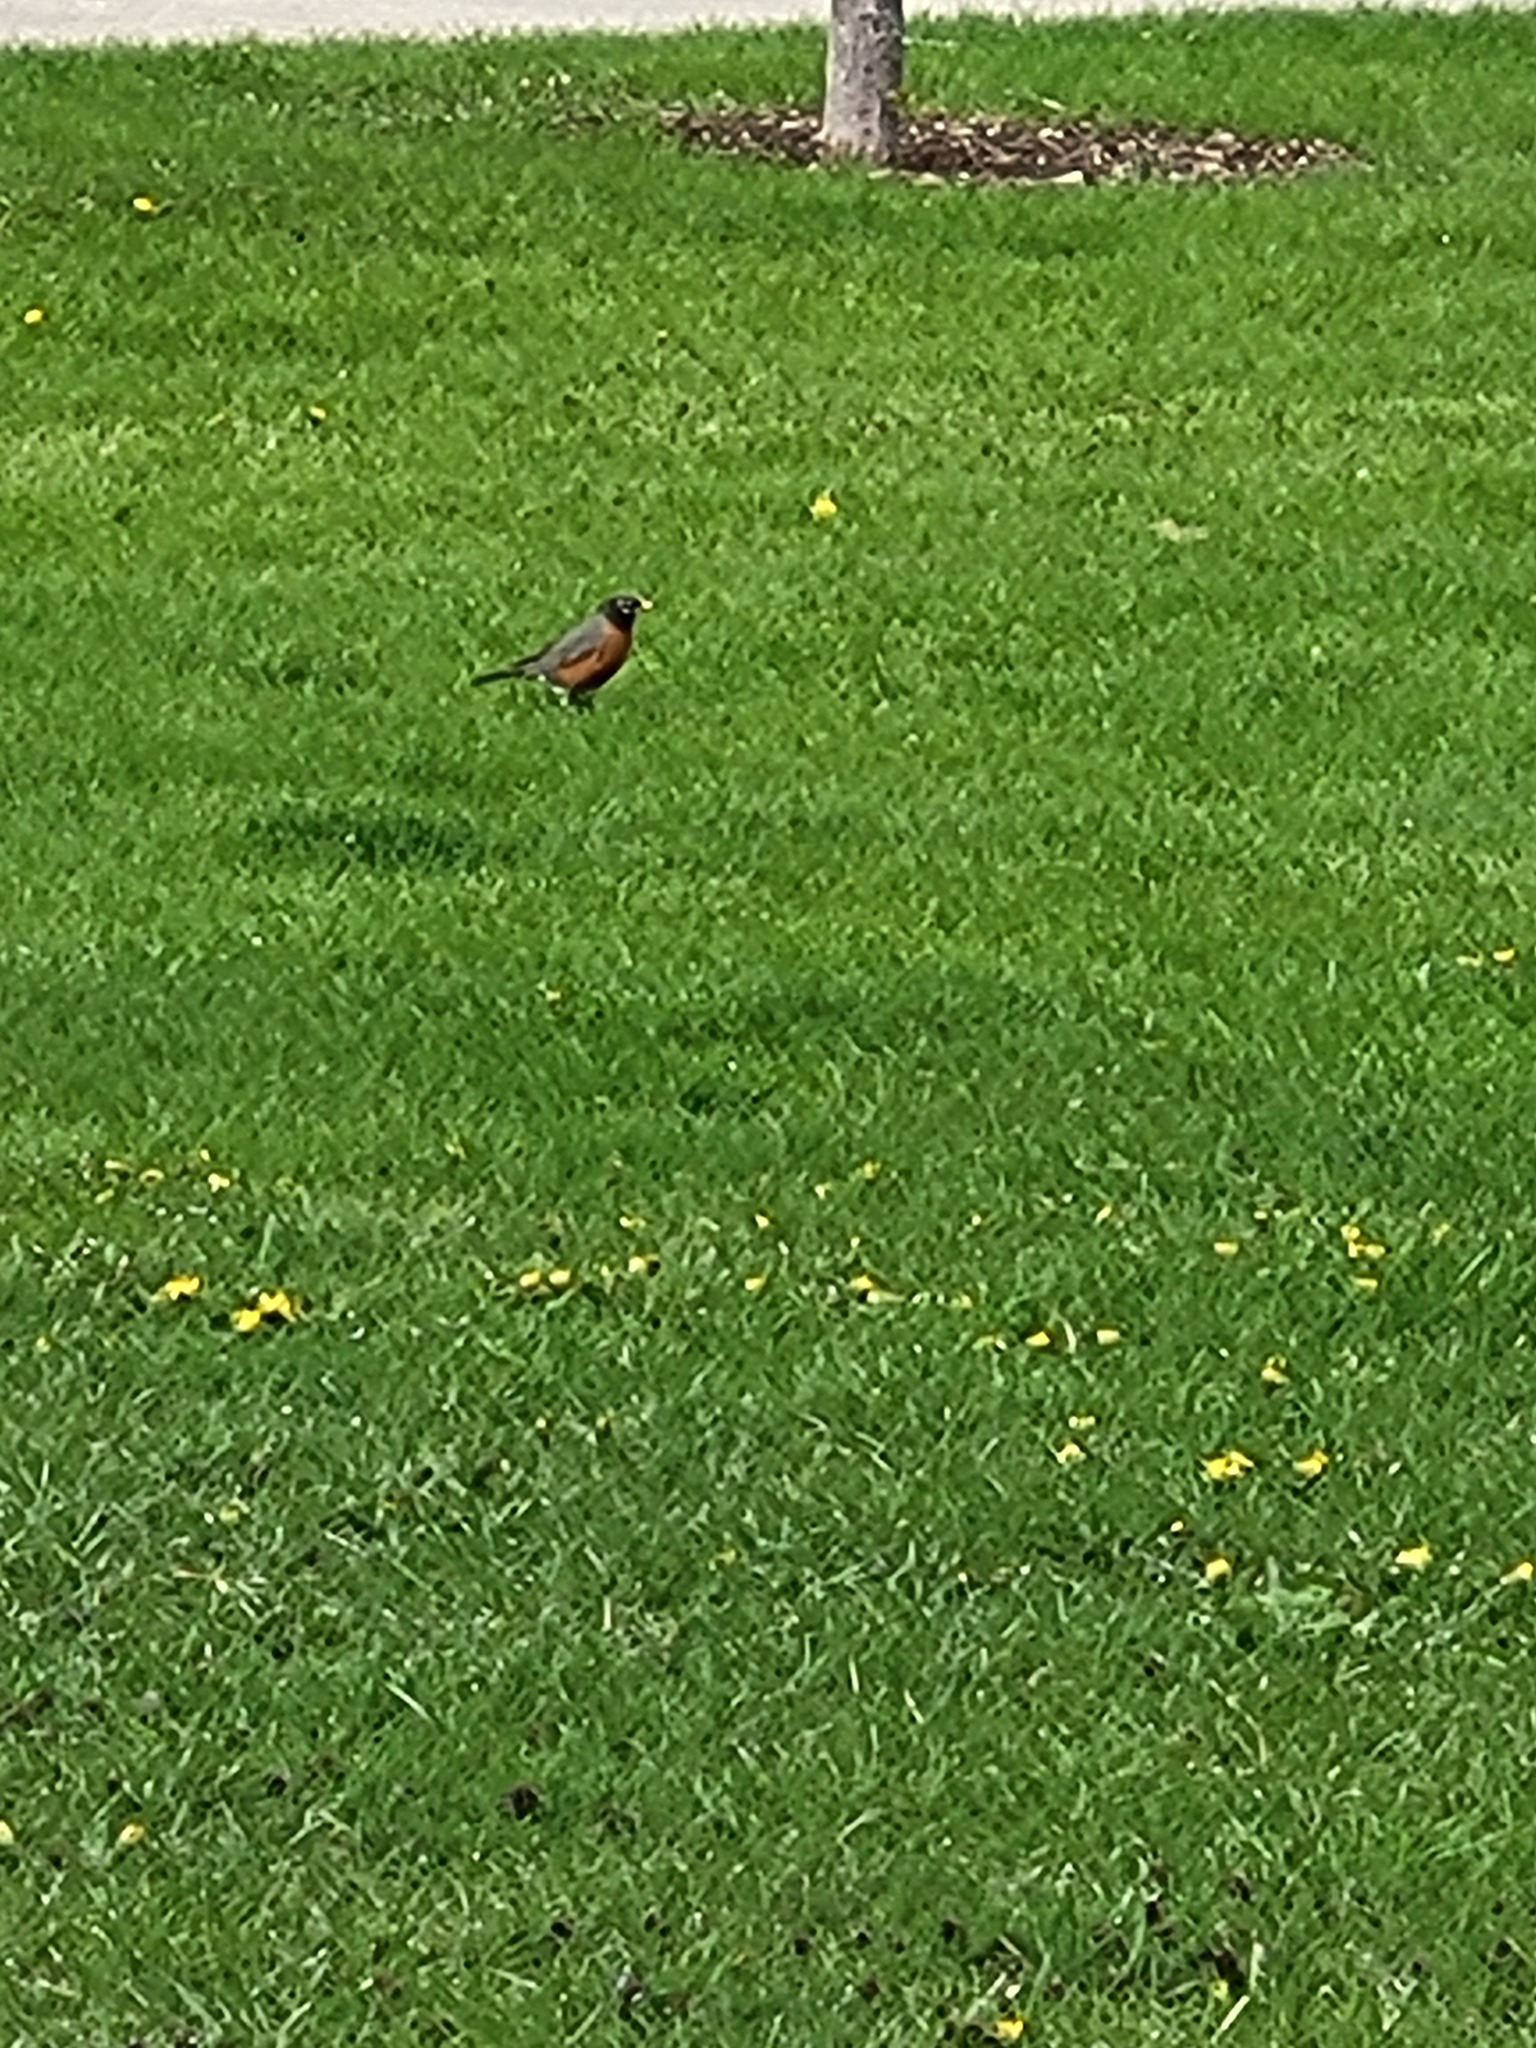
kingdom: Animalia
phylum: Chordata
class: Aves
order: Passeriformes
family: Turdidae
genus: Turdus
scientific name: Turdus migratorius
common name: American robin
